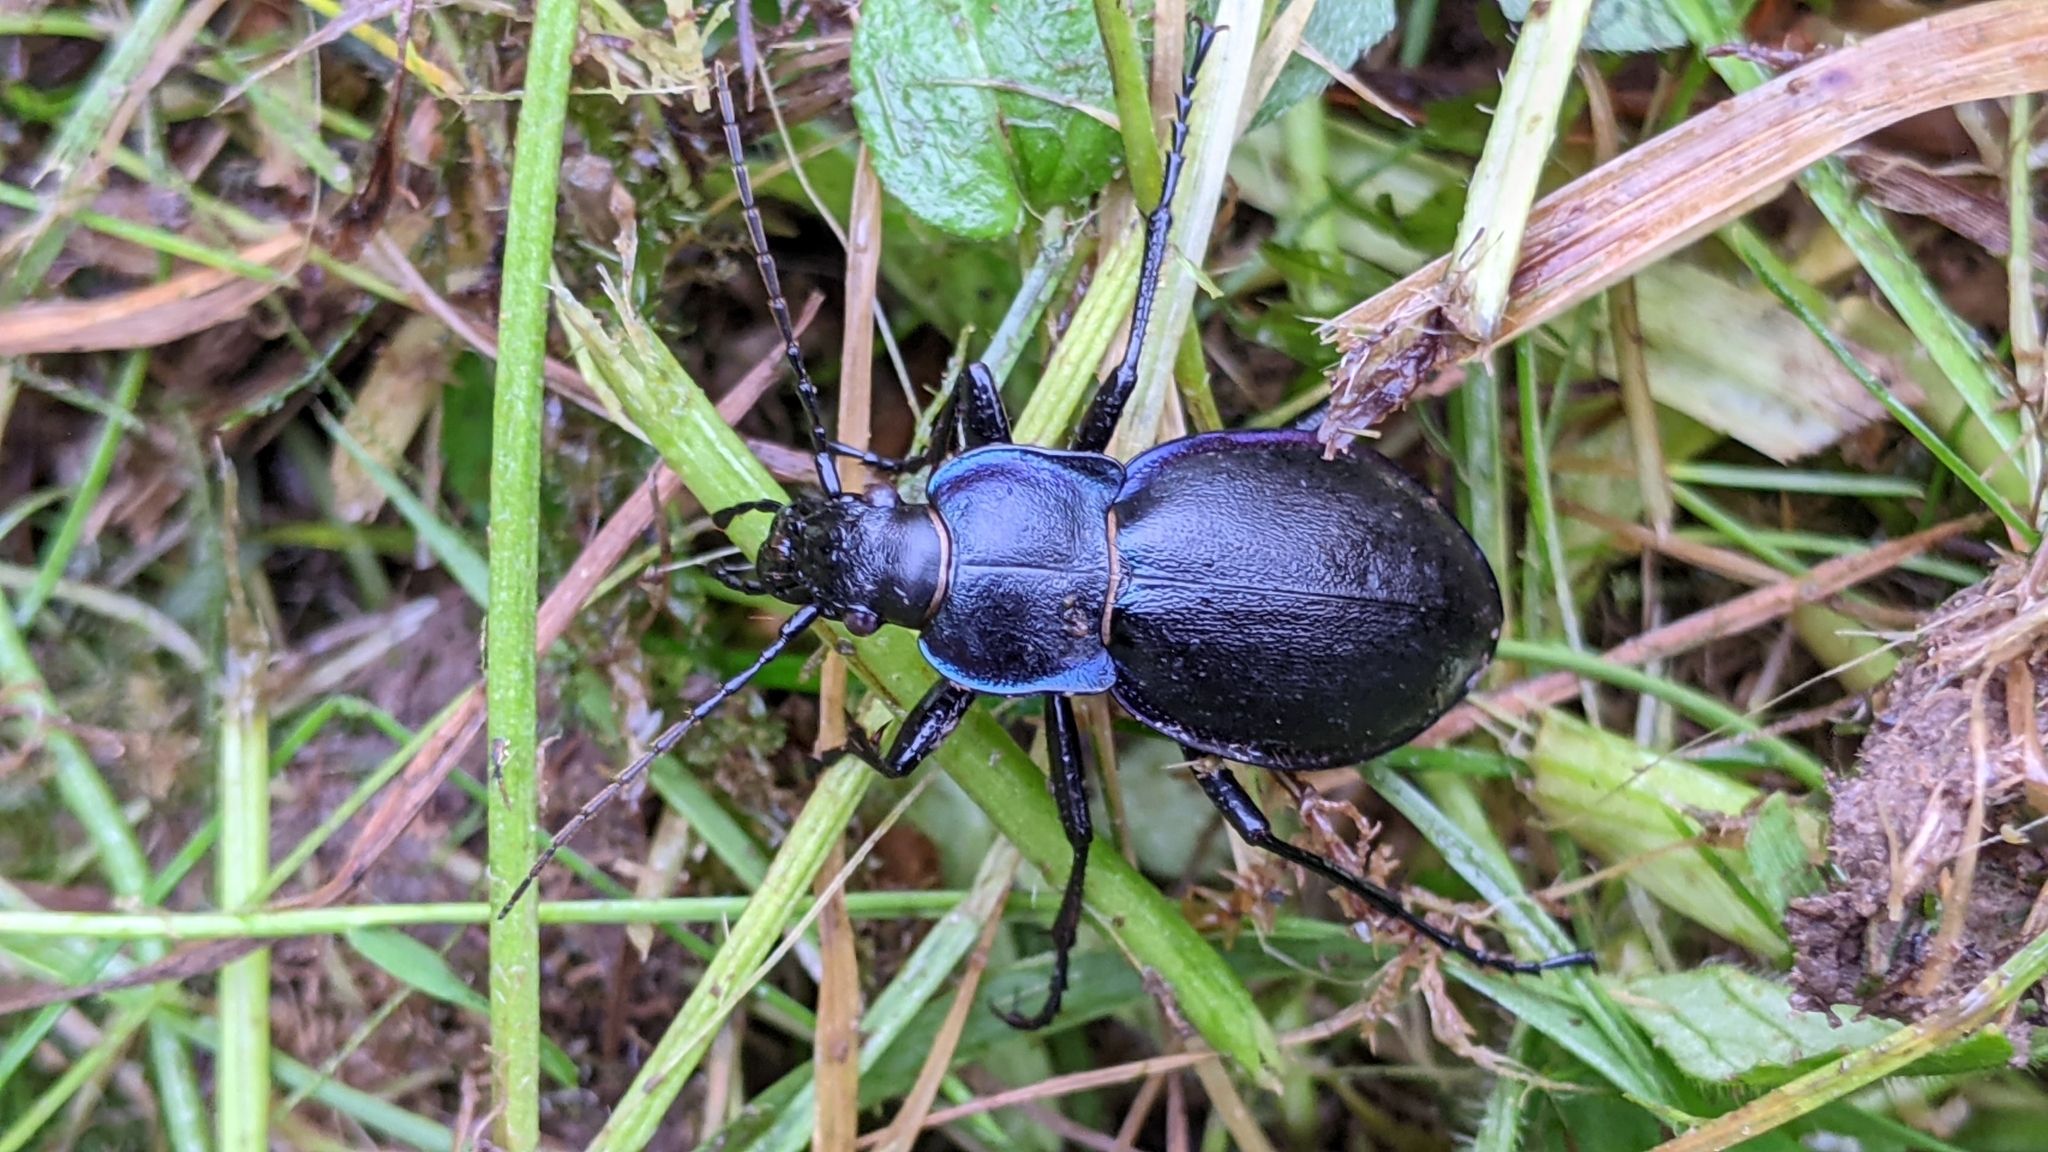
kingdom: Animalia
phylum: Arthropoda
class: Insecta
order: Coleoptera
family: Carabidae
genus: Carabus
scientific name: Carabus violaceus
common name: Violet ground beetle
